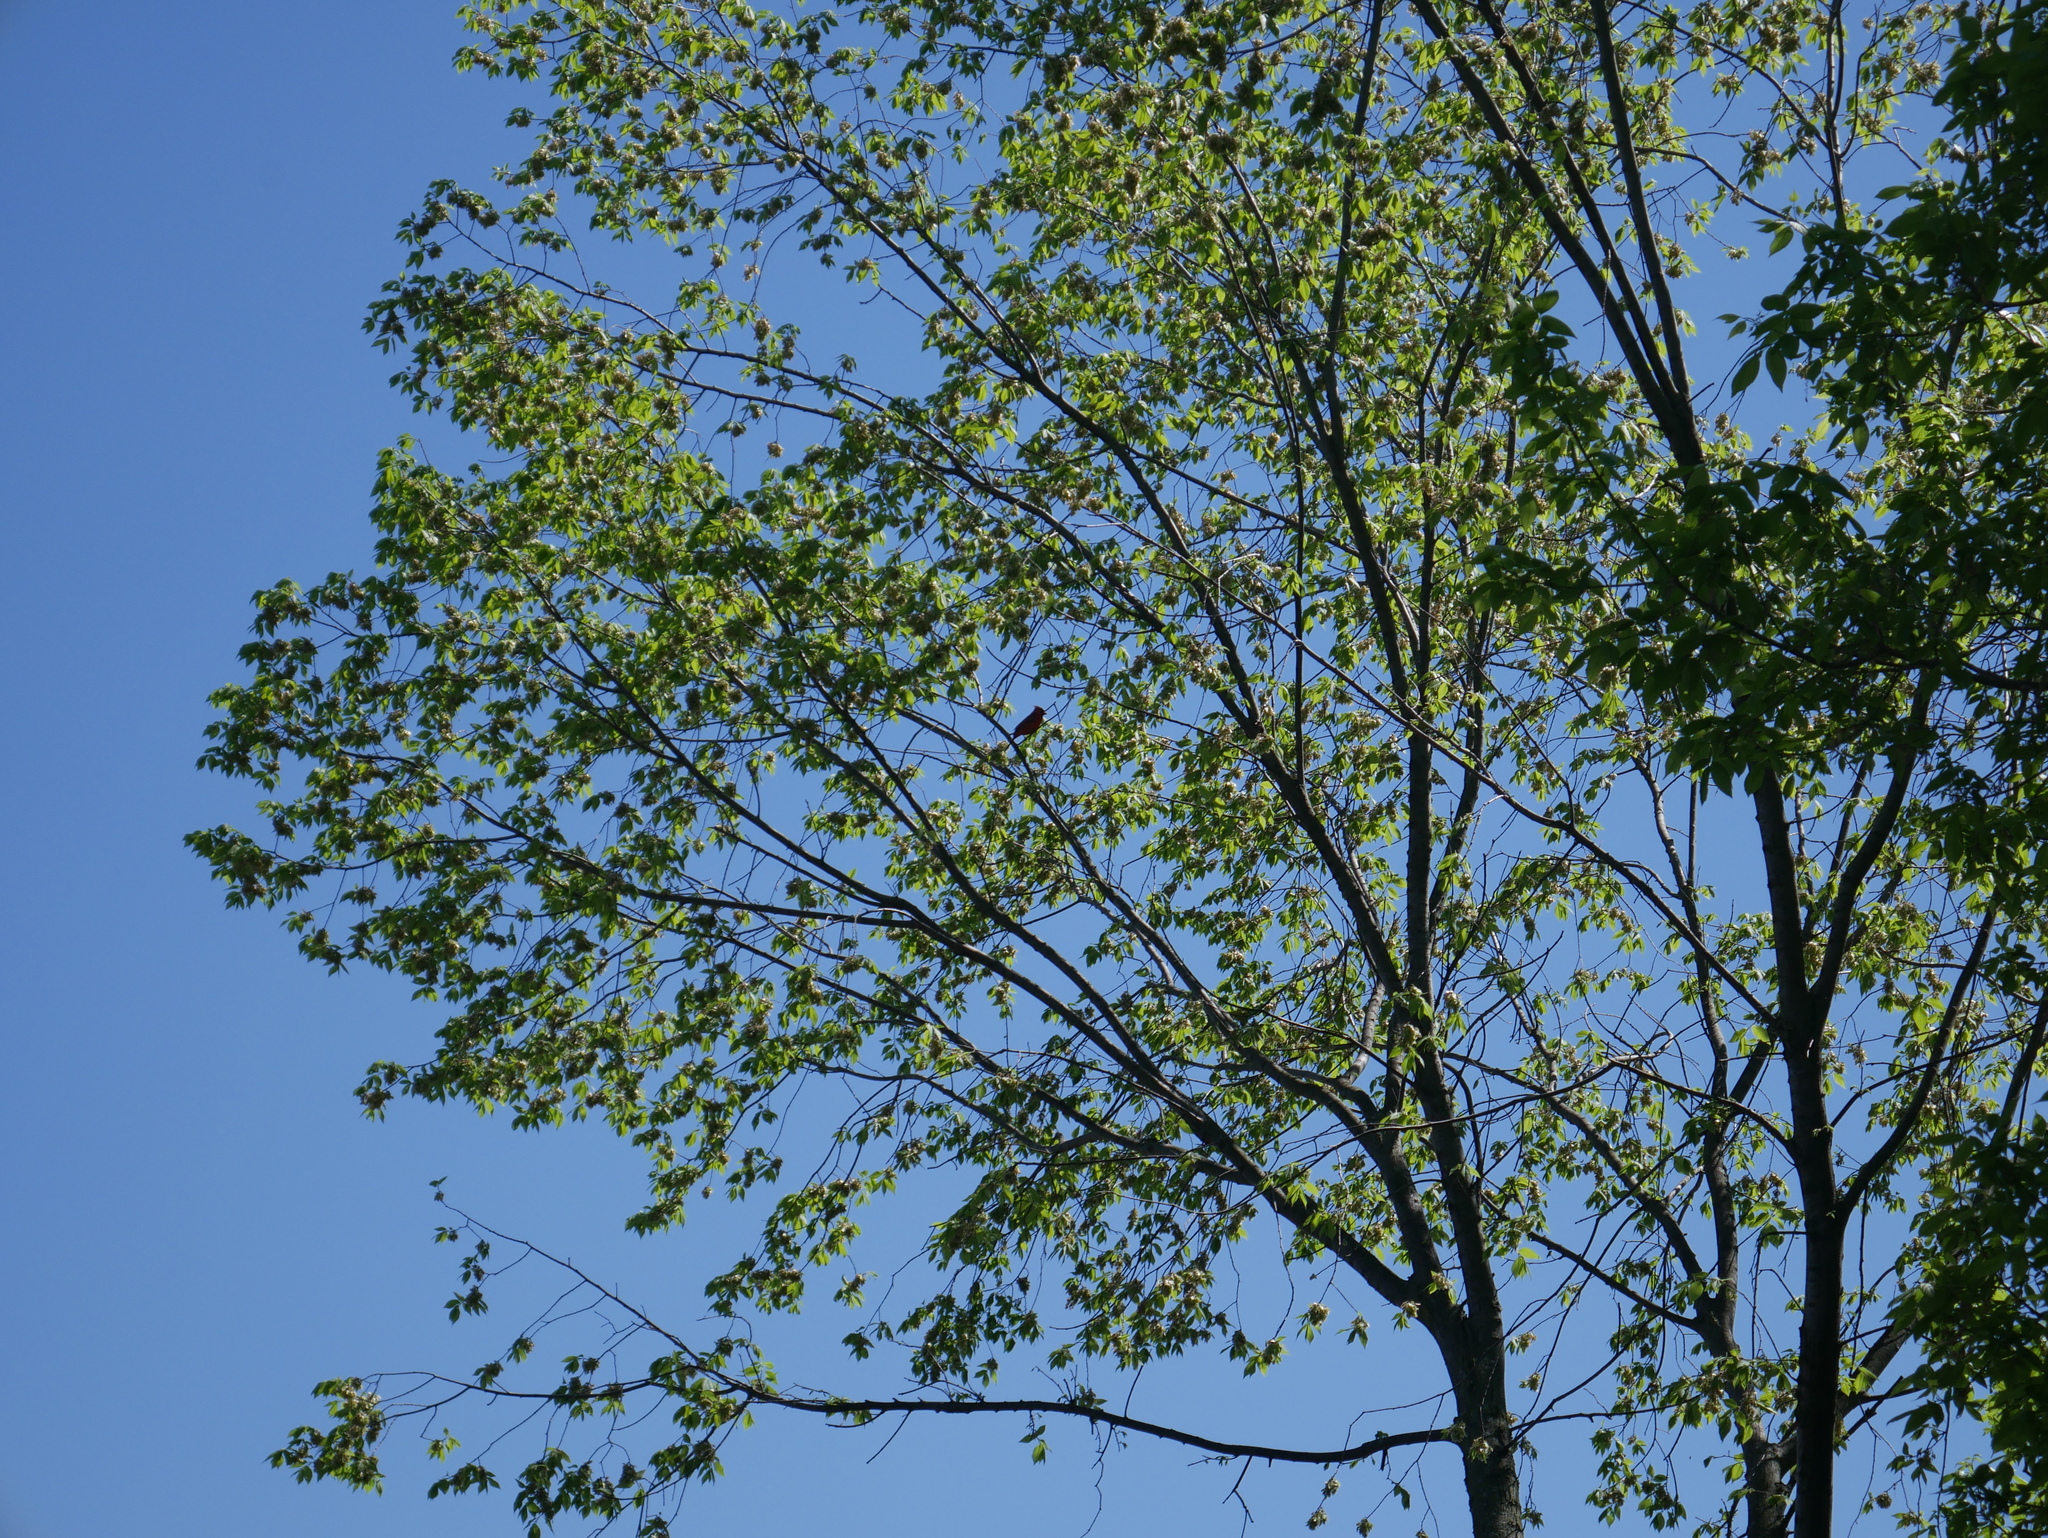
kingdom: Animalia
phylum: Chordata
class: Aves
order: Passeriformes
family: Cardinalidae
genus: Cardinalis
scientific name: Cardinalis cardinalis
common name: Northern cardinal
